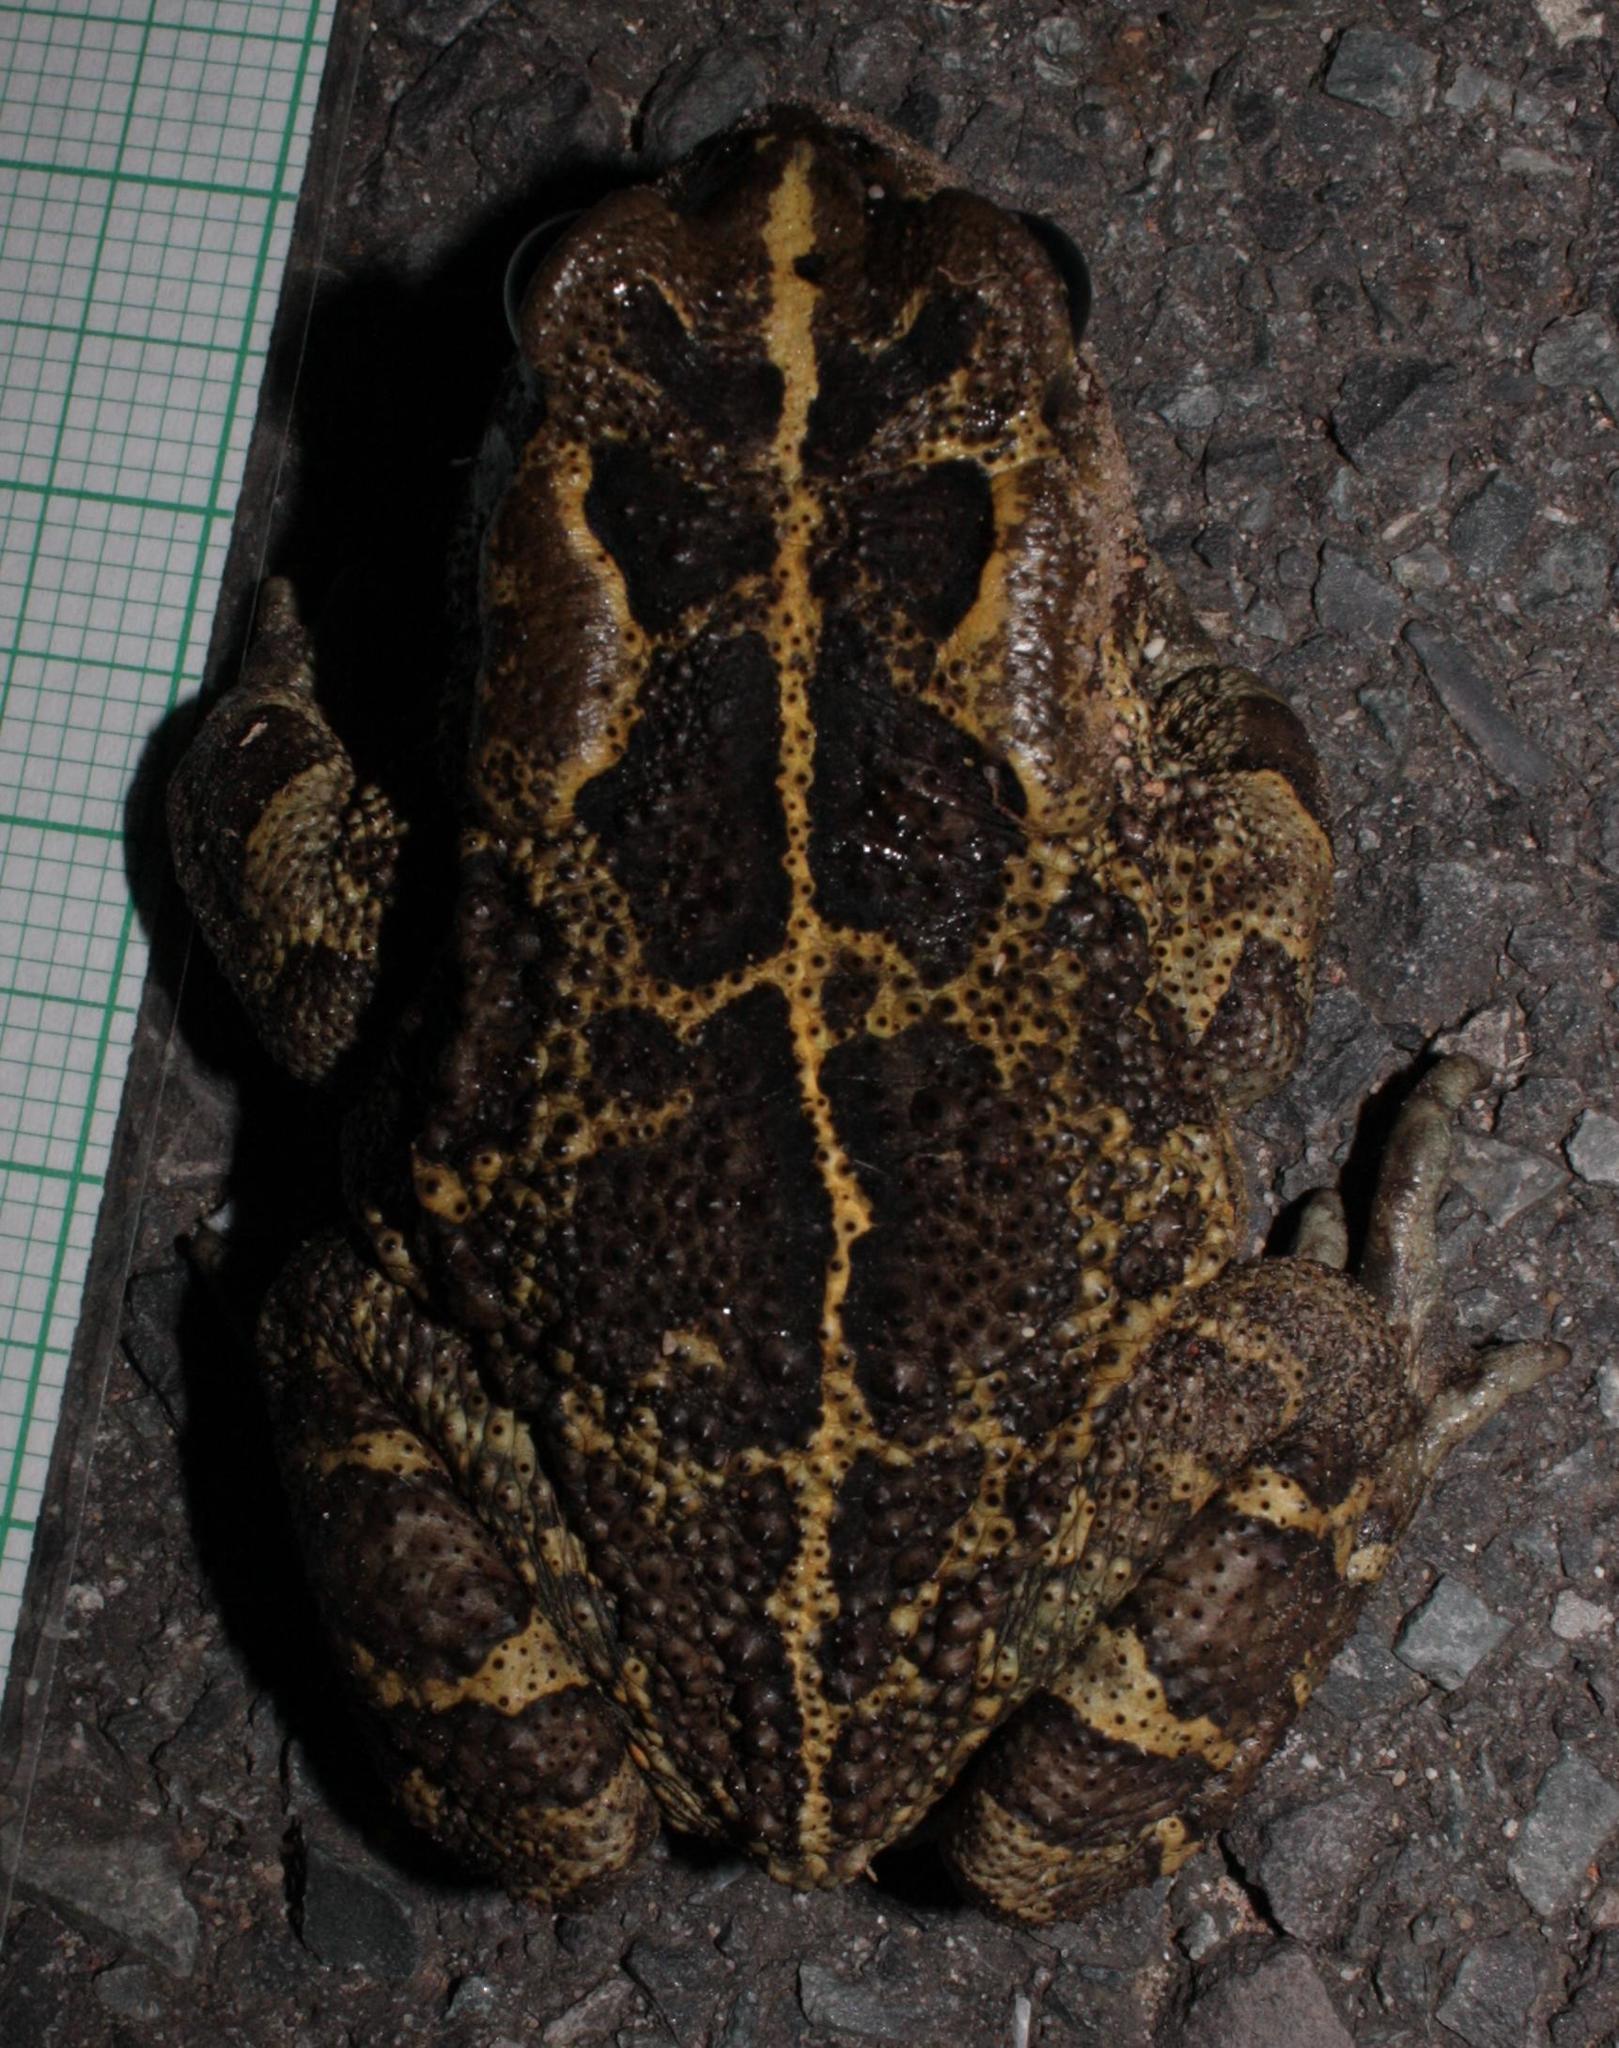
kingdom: Animalia
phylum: Chordata
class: Amphibia
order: Anura
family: Bufonidae
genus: Sclerophrys
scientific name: Sclerophrys pantherina
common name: Panther toad
